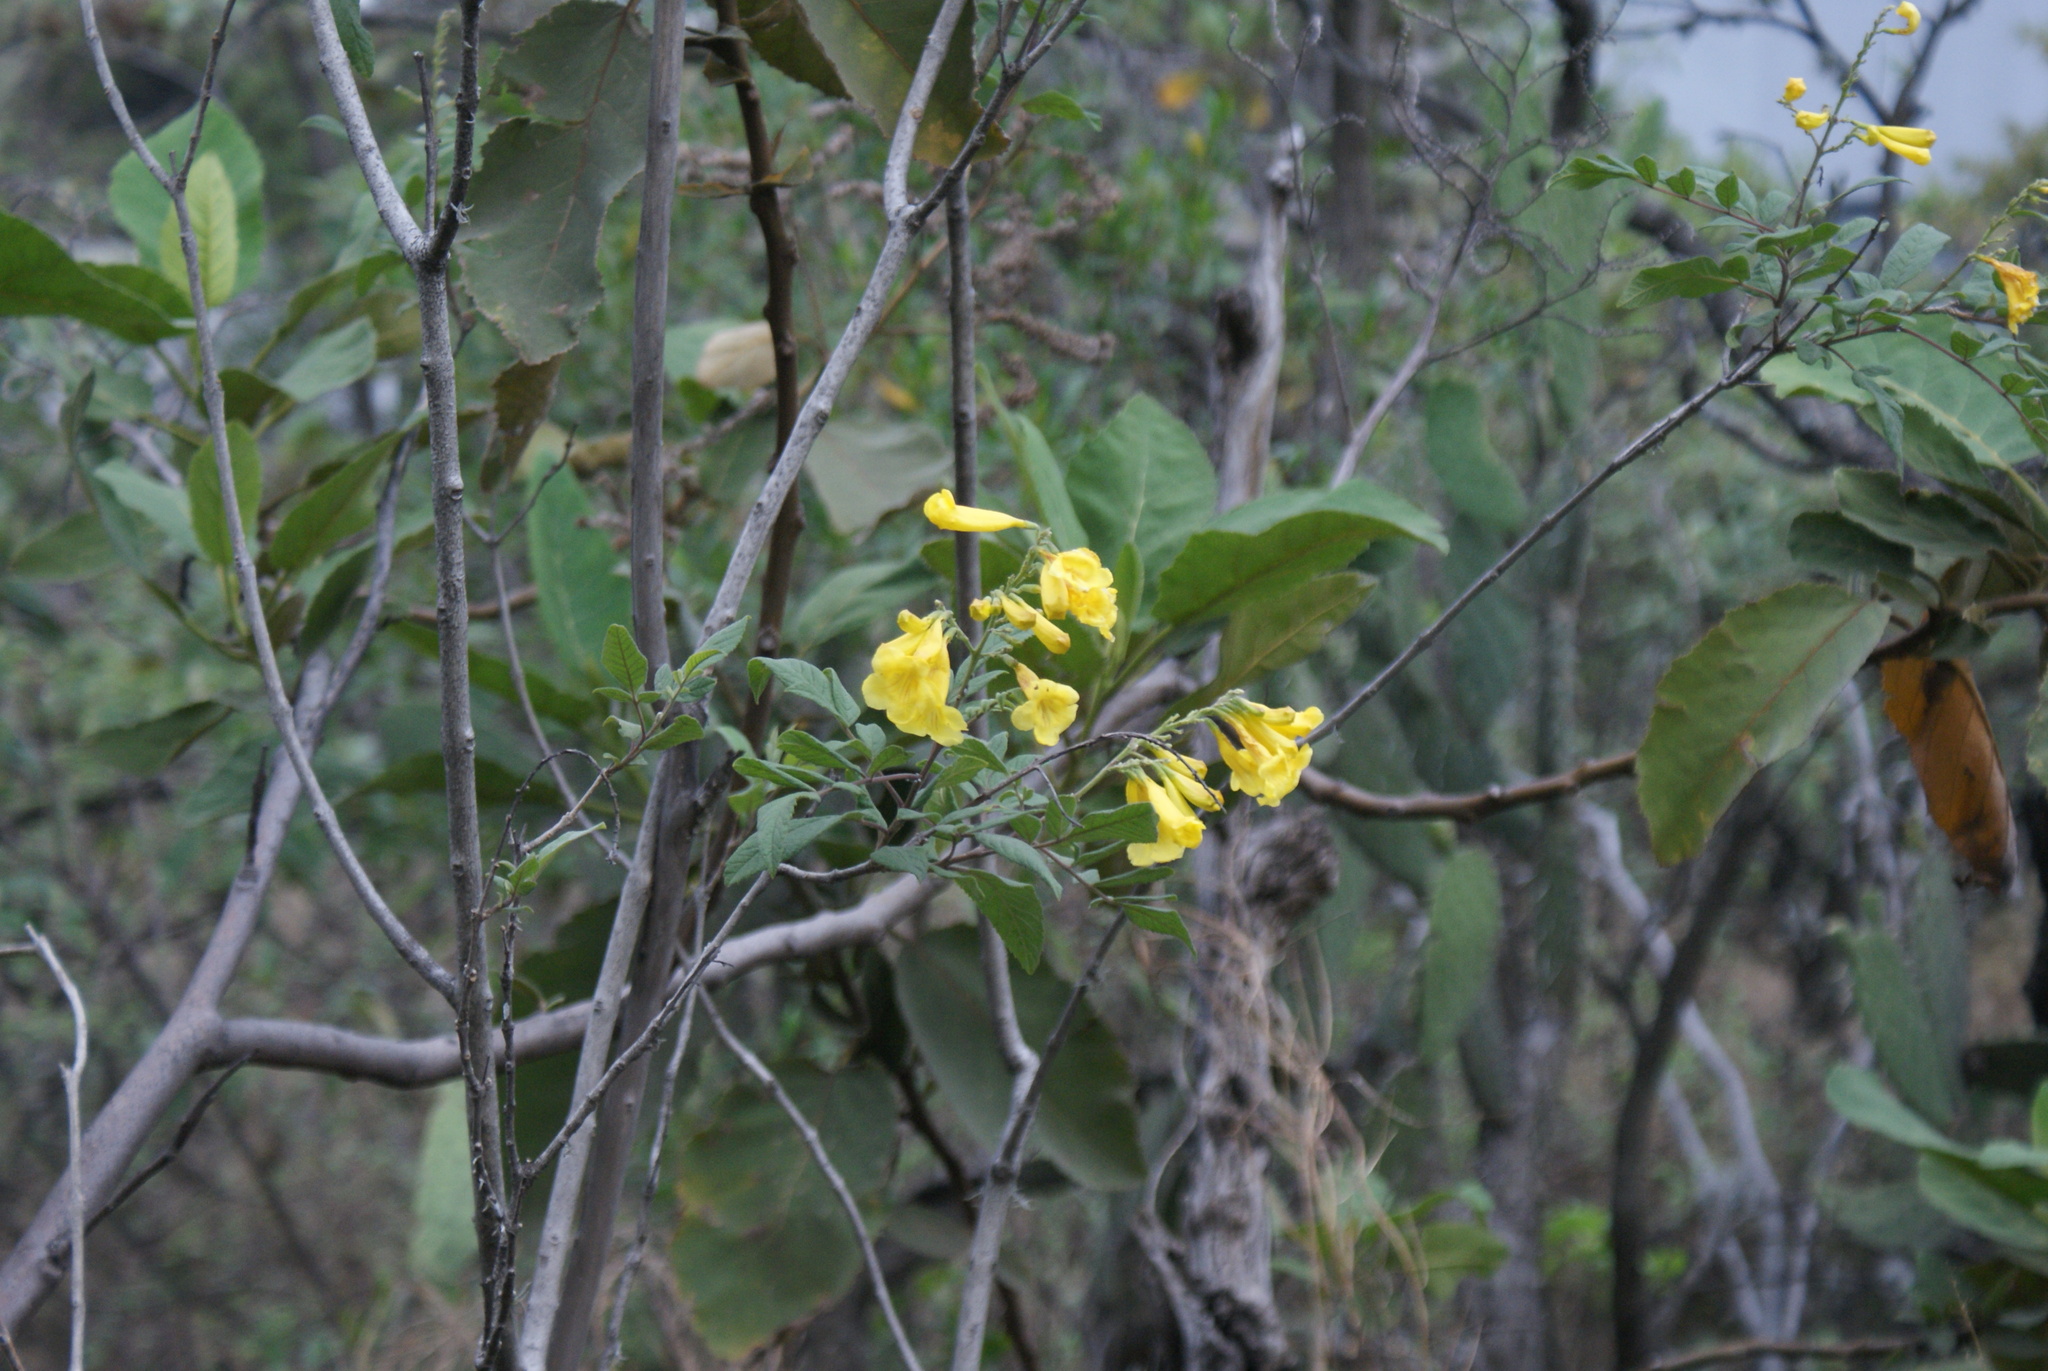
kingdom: Plantae
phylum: Tracheophyta
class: Magnoliopsida
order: Lamiales
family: Bignoniaceae
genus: Tecoma
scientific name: Tecoma stans
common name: Yellow trumpetbush
